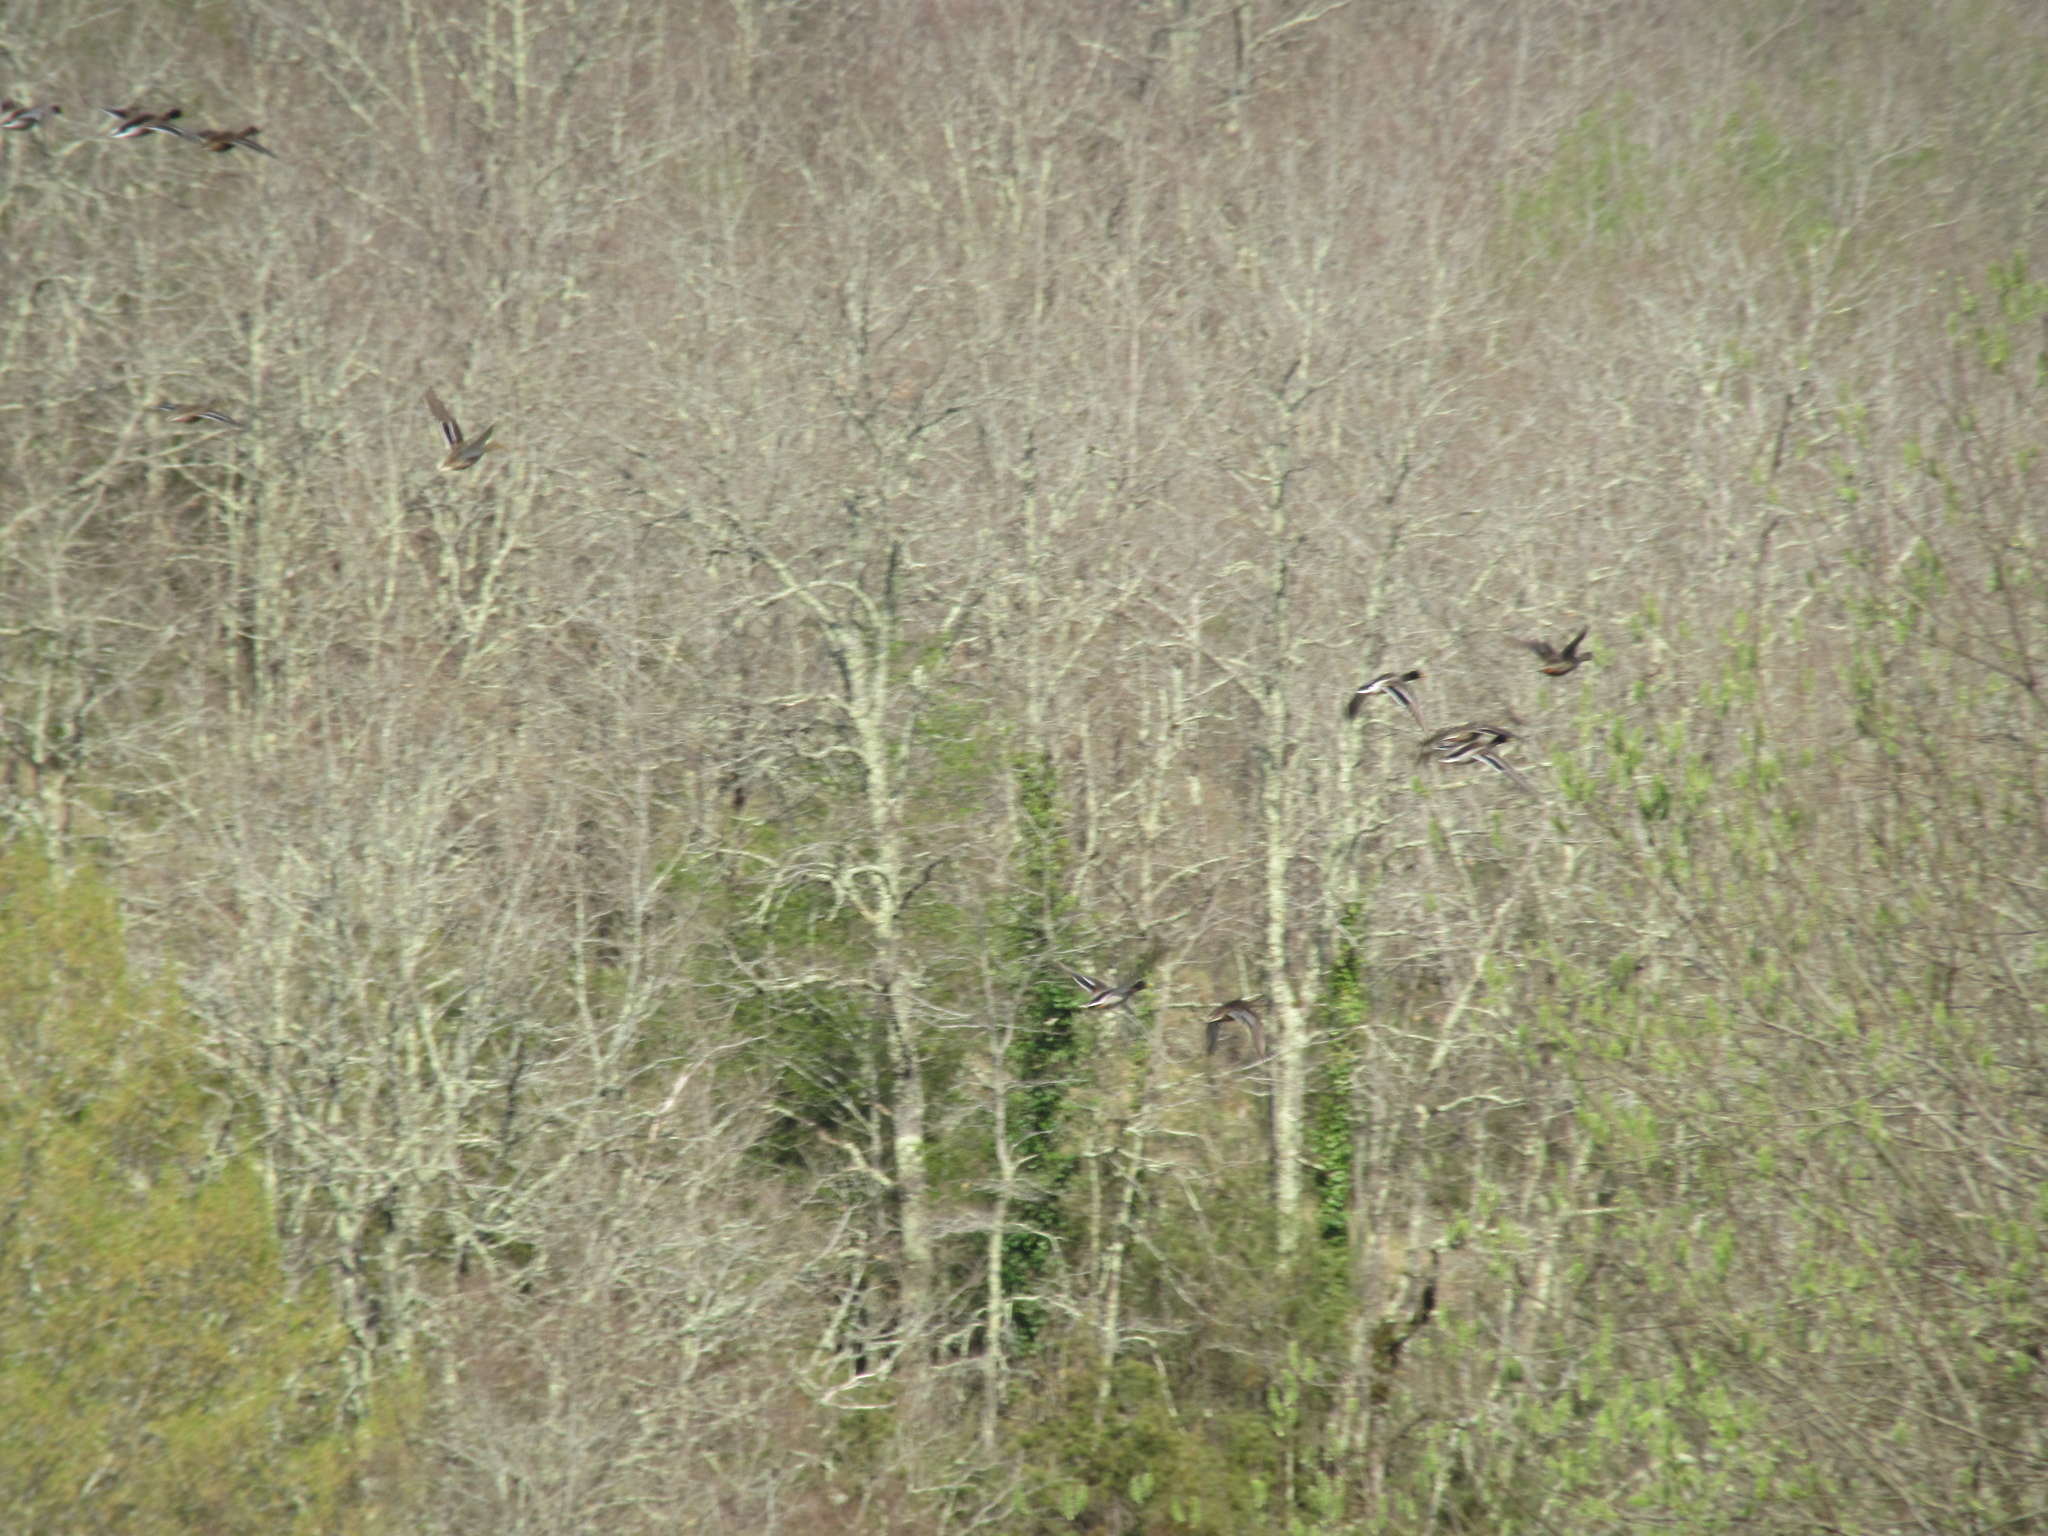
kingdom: Animalia
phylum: Chordata
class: Aves
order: Anseriformes
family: Anatidae
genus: Anas
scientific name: Anas platyrhynchos
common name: Mallard
